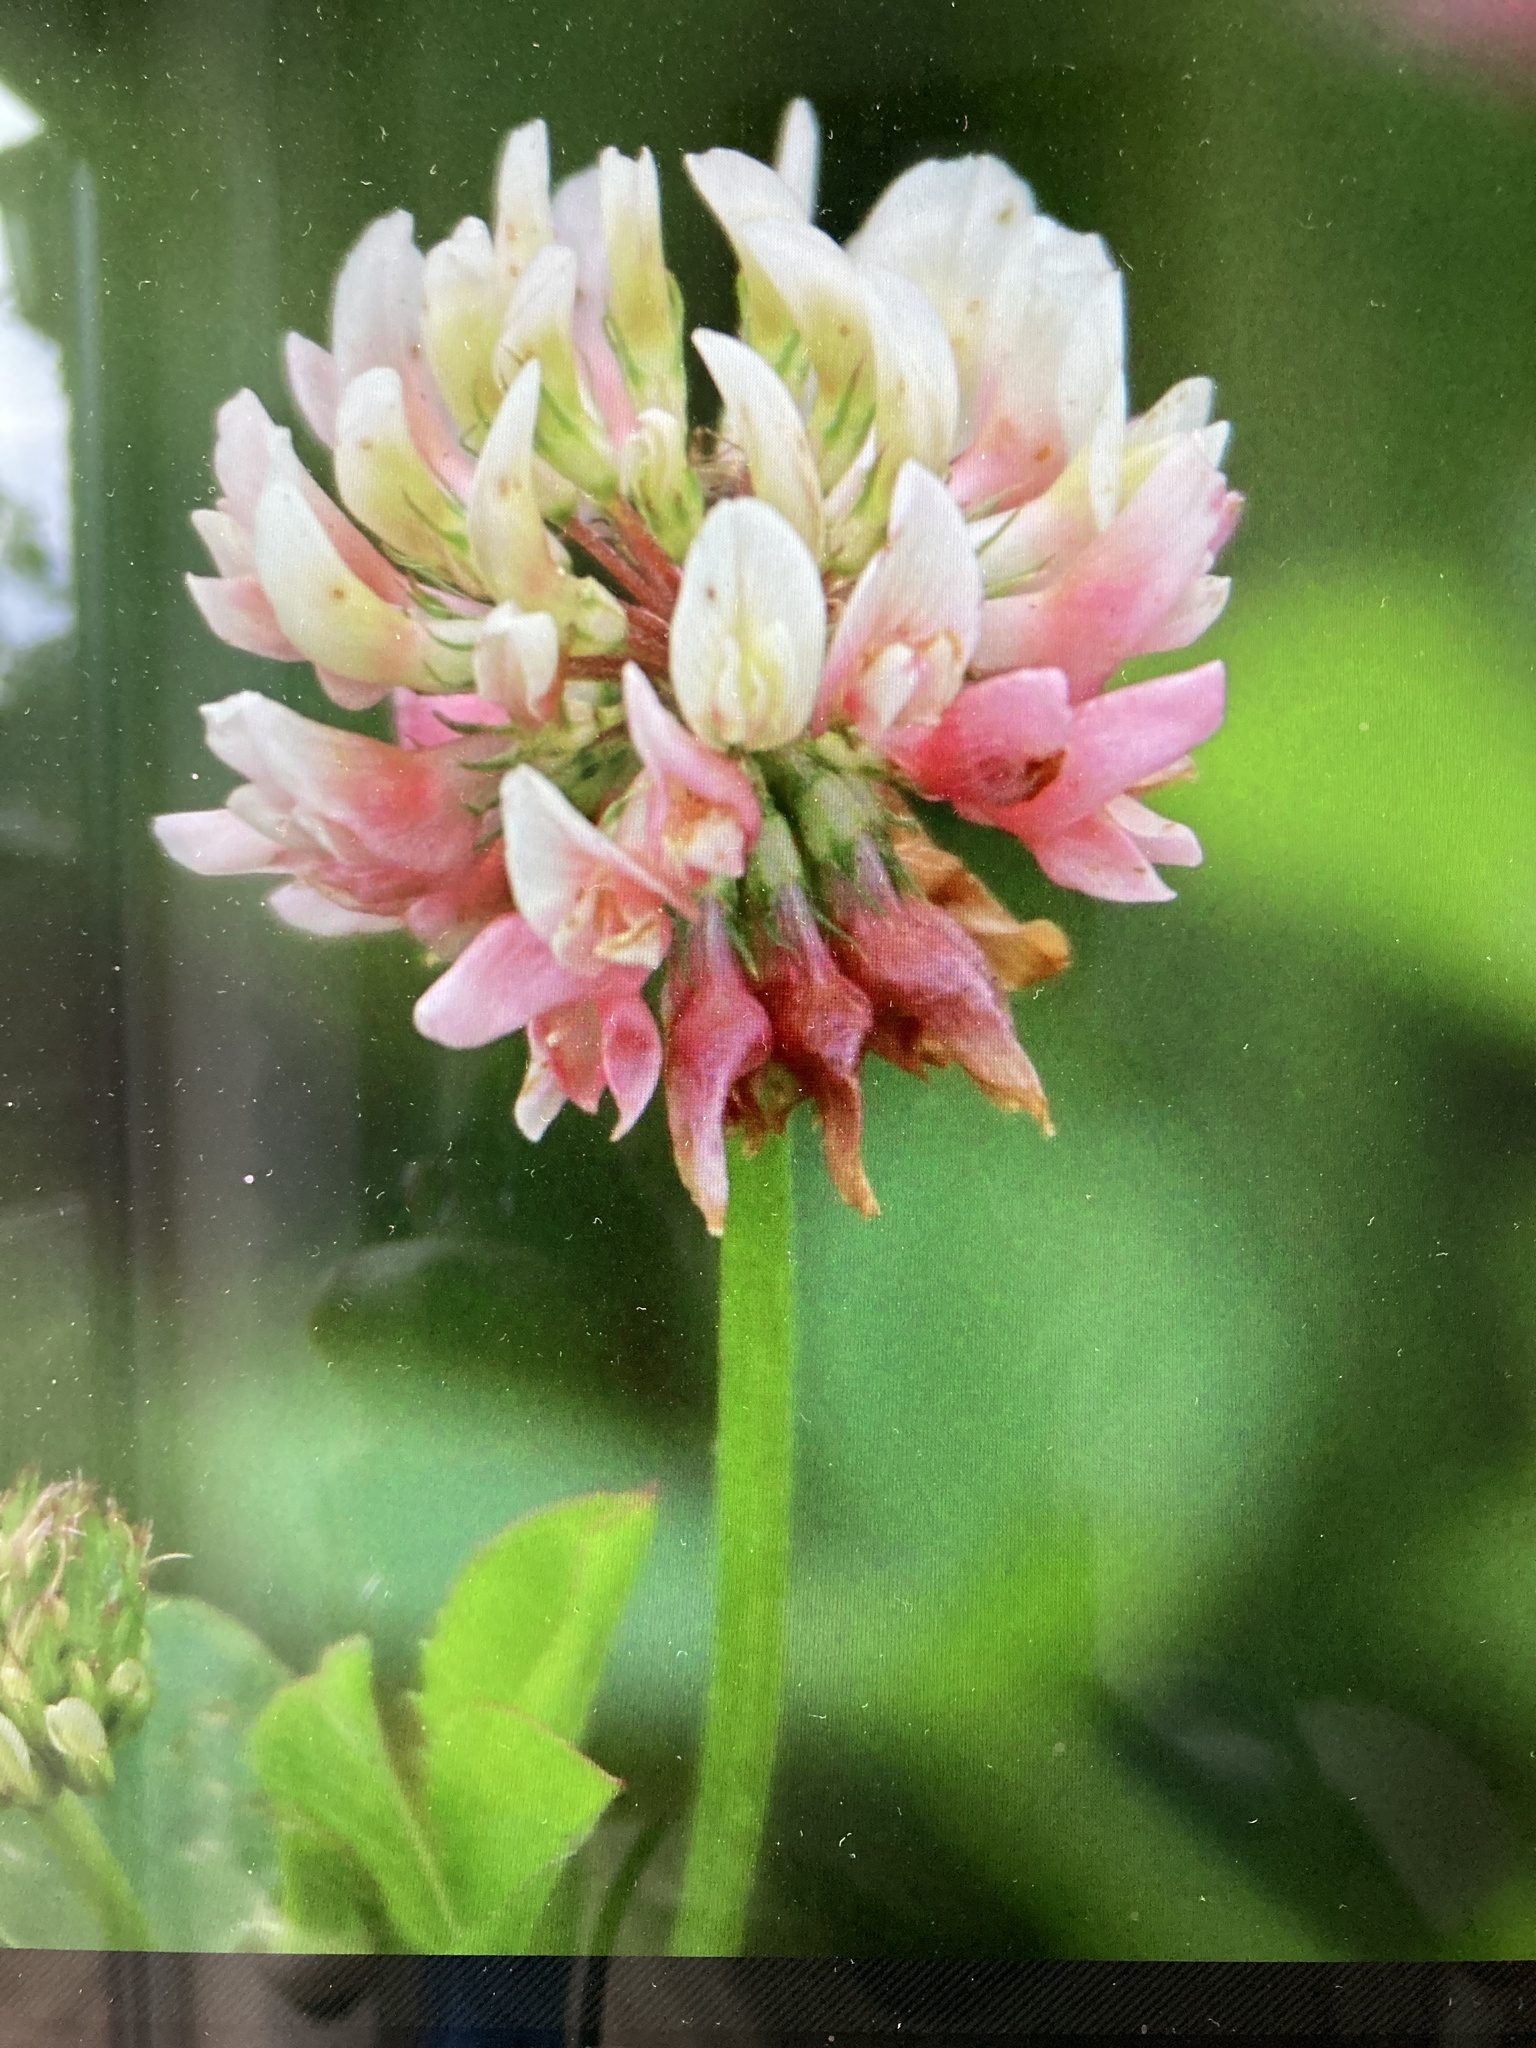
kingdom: Plantae
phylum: Tracheophyta
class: Magnoliopsida
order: Fabales
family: Fabaceae
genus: Trifolium
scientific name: Trifolium hybridum
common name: Alsike clover
